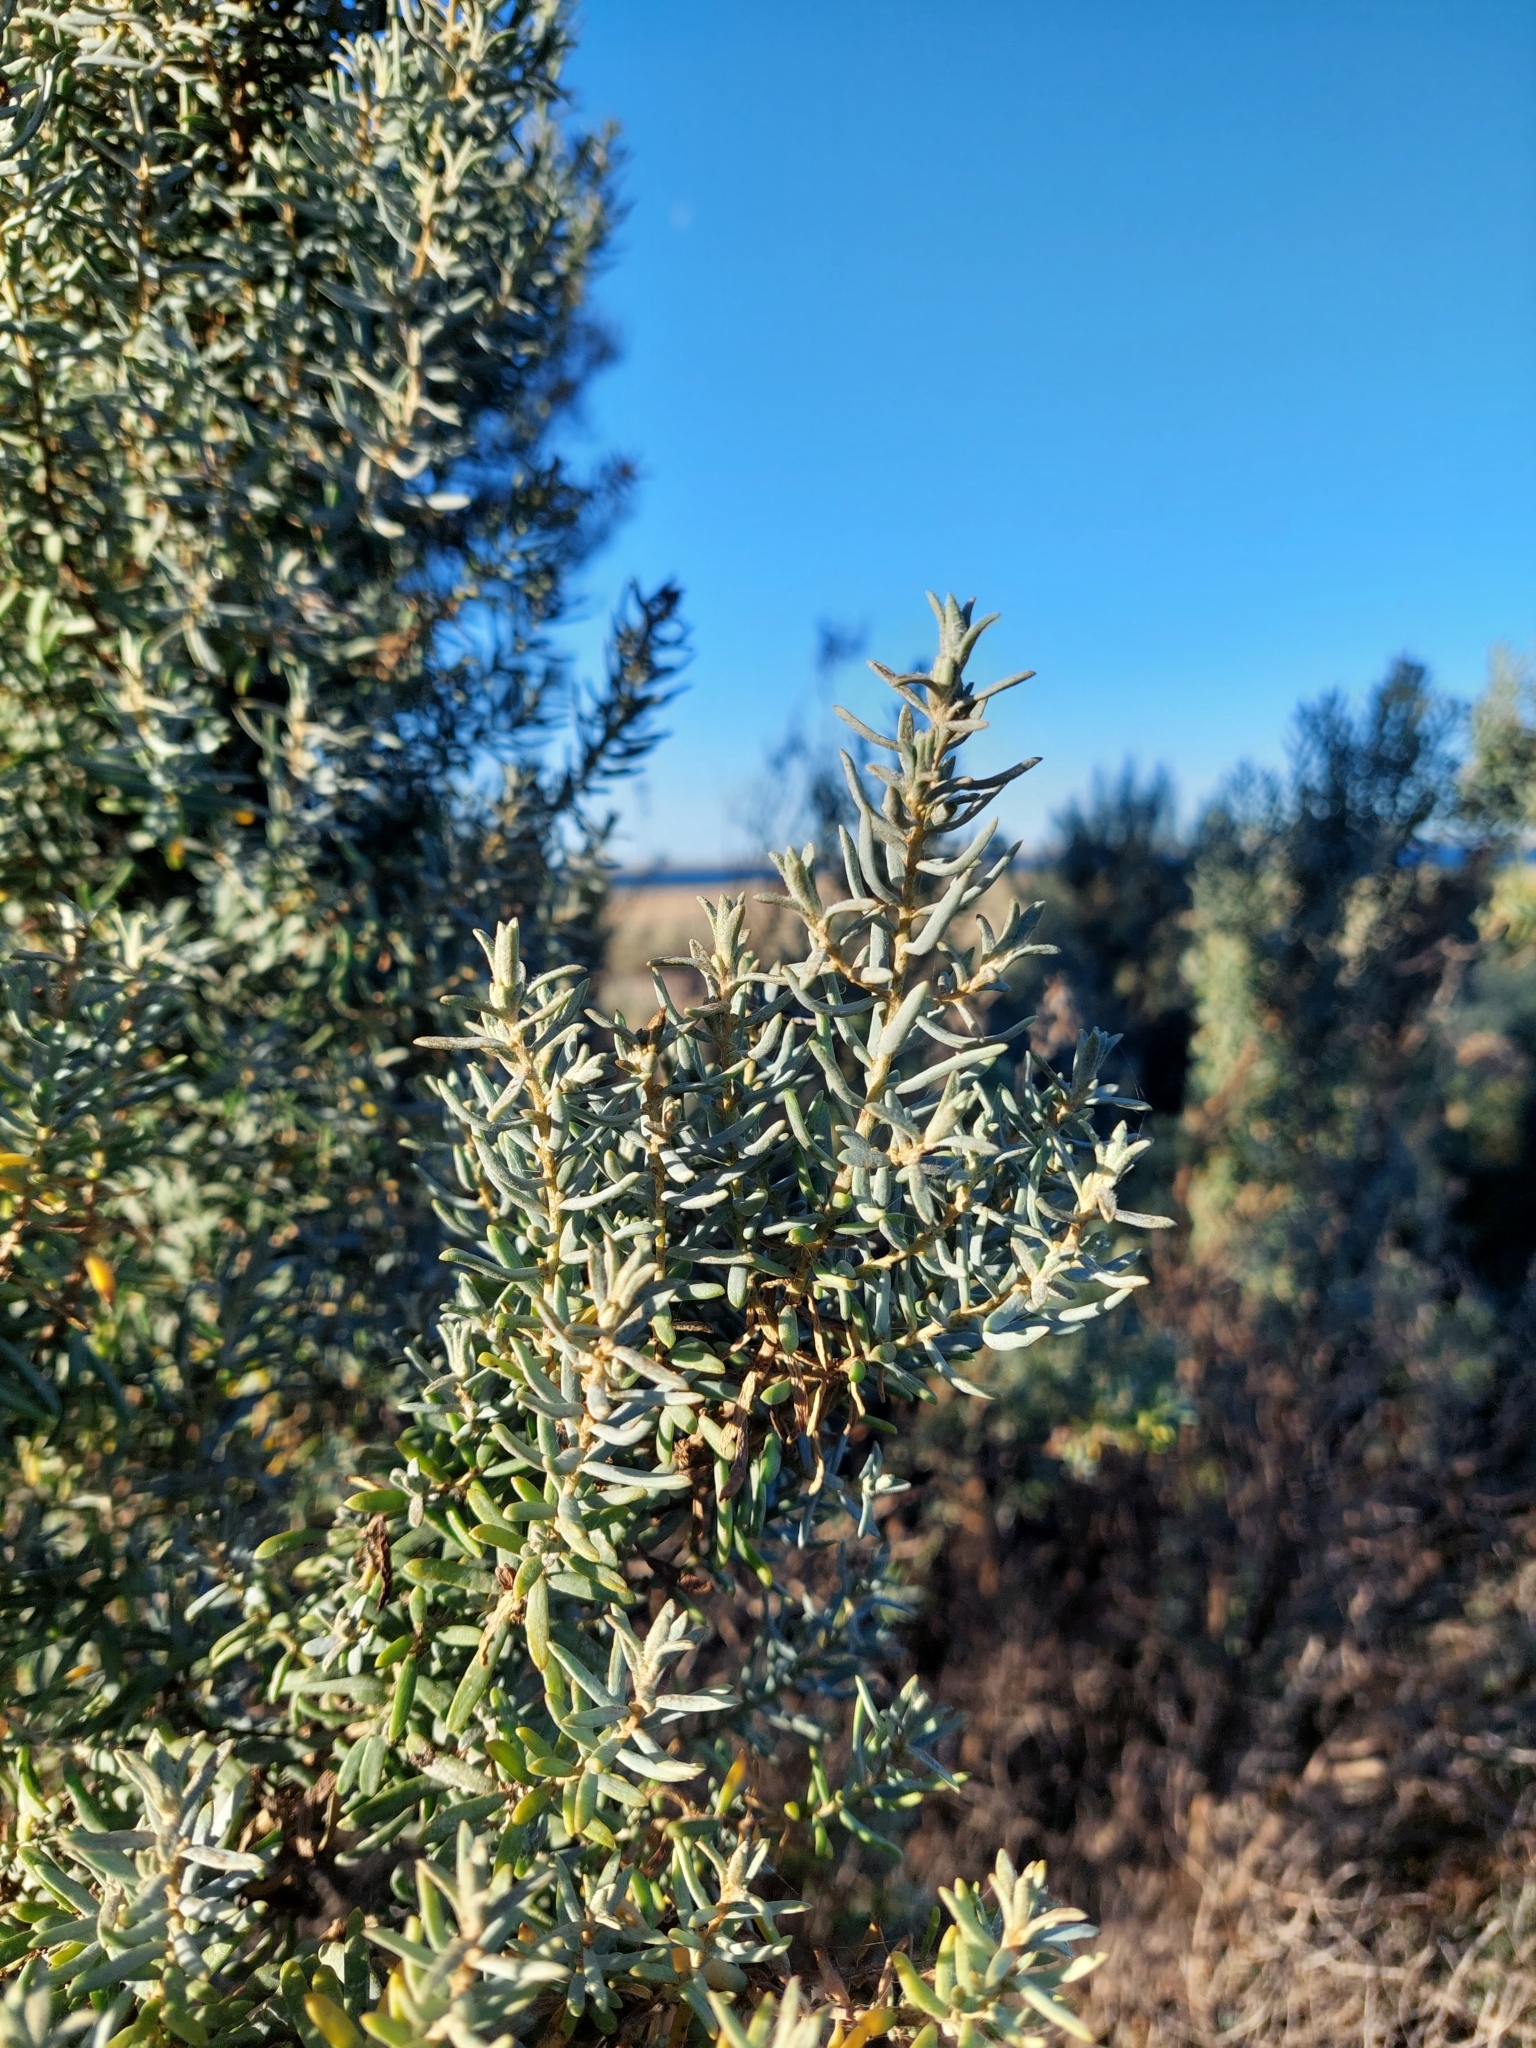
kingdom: Plantae
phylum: Tracheophyta
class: Magnoliopsida
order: Caryophyllales
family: Amaranthaceae
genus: Suaeda
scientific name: Suaeda divaricata
